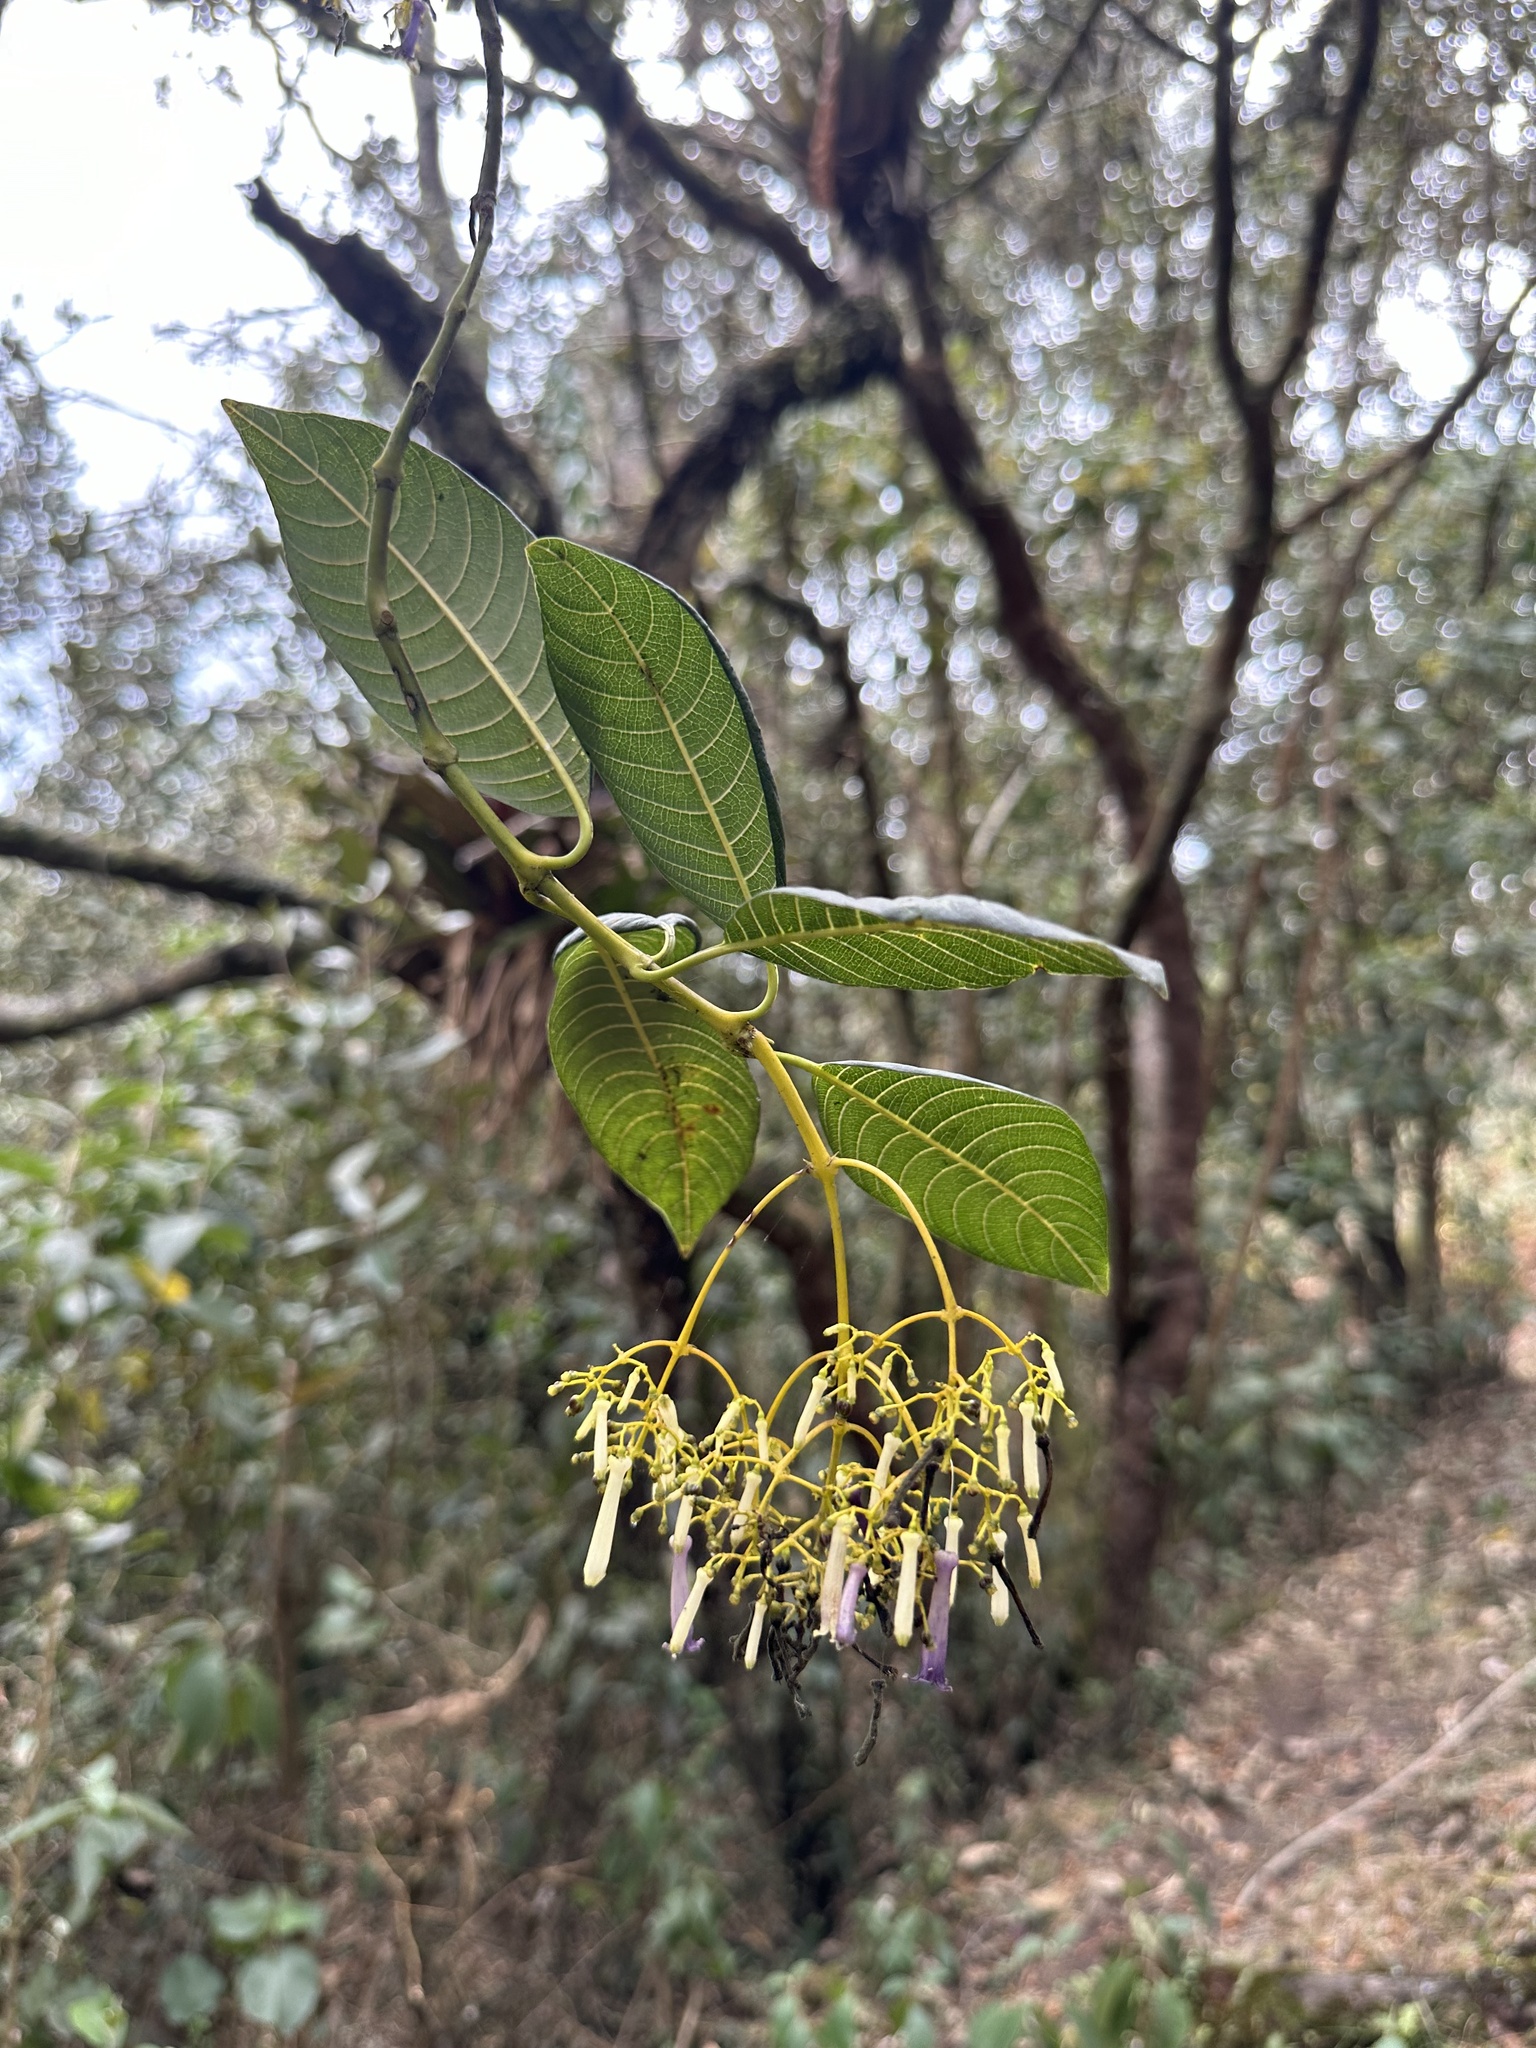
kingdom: Plantae
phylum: Tracheophyta
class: Magnoliopsida
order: Gentianales
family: Rubiaceae
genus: Palicourea
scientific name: Palicourea lineariflora
